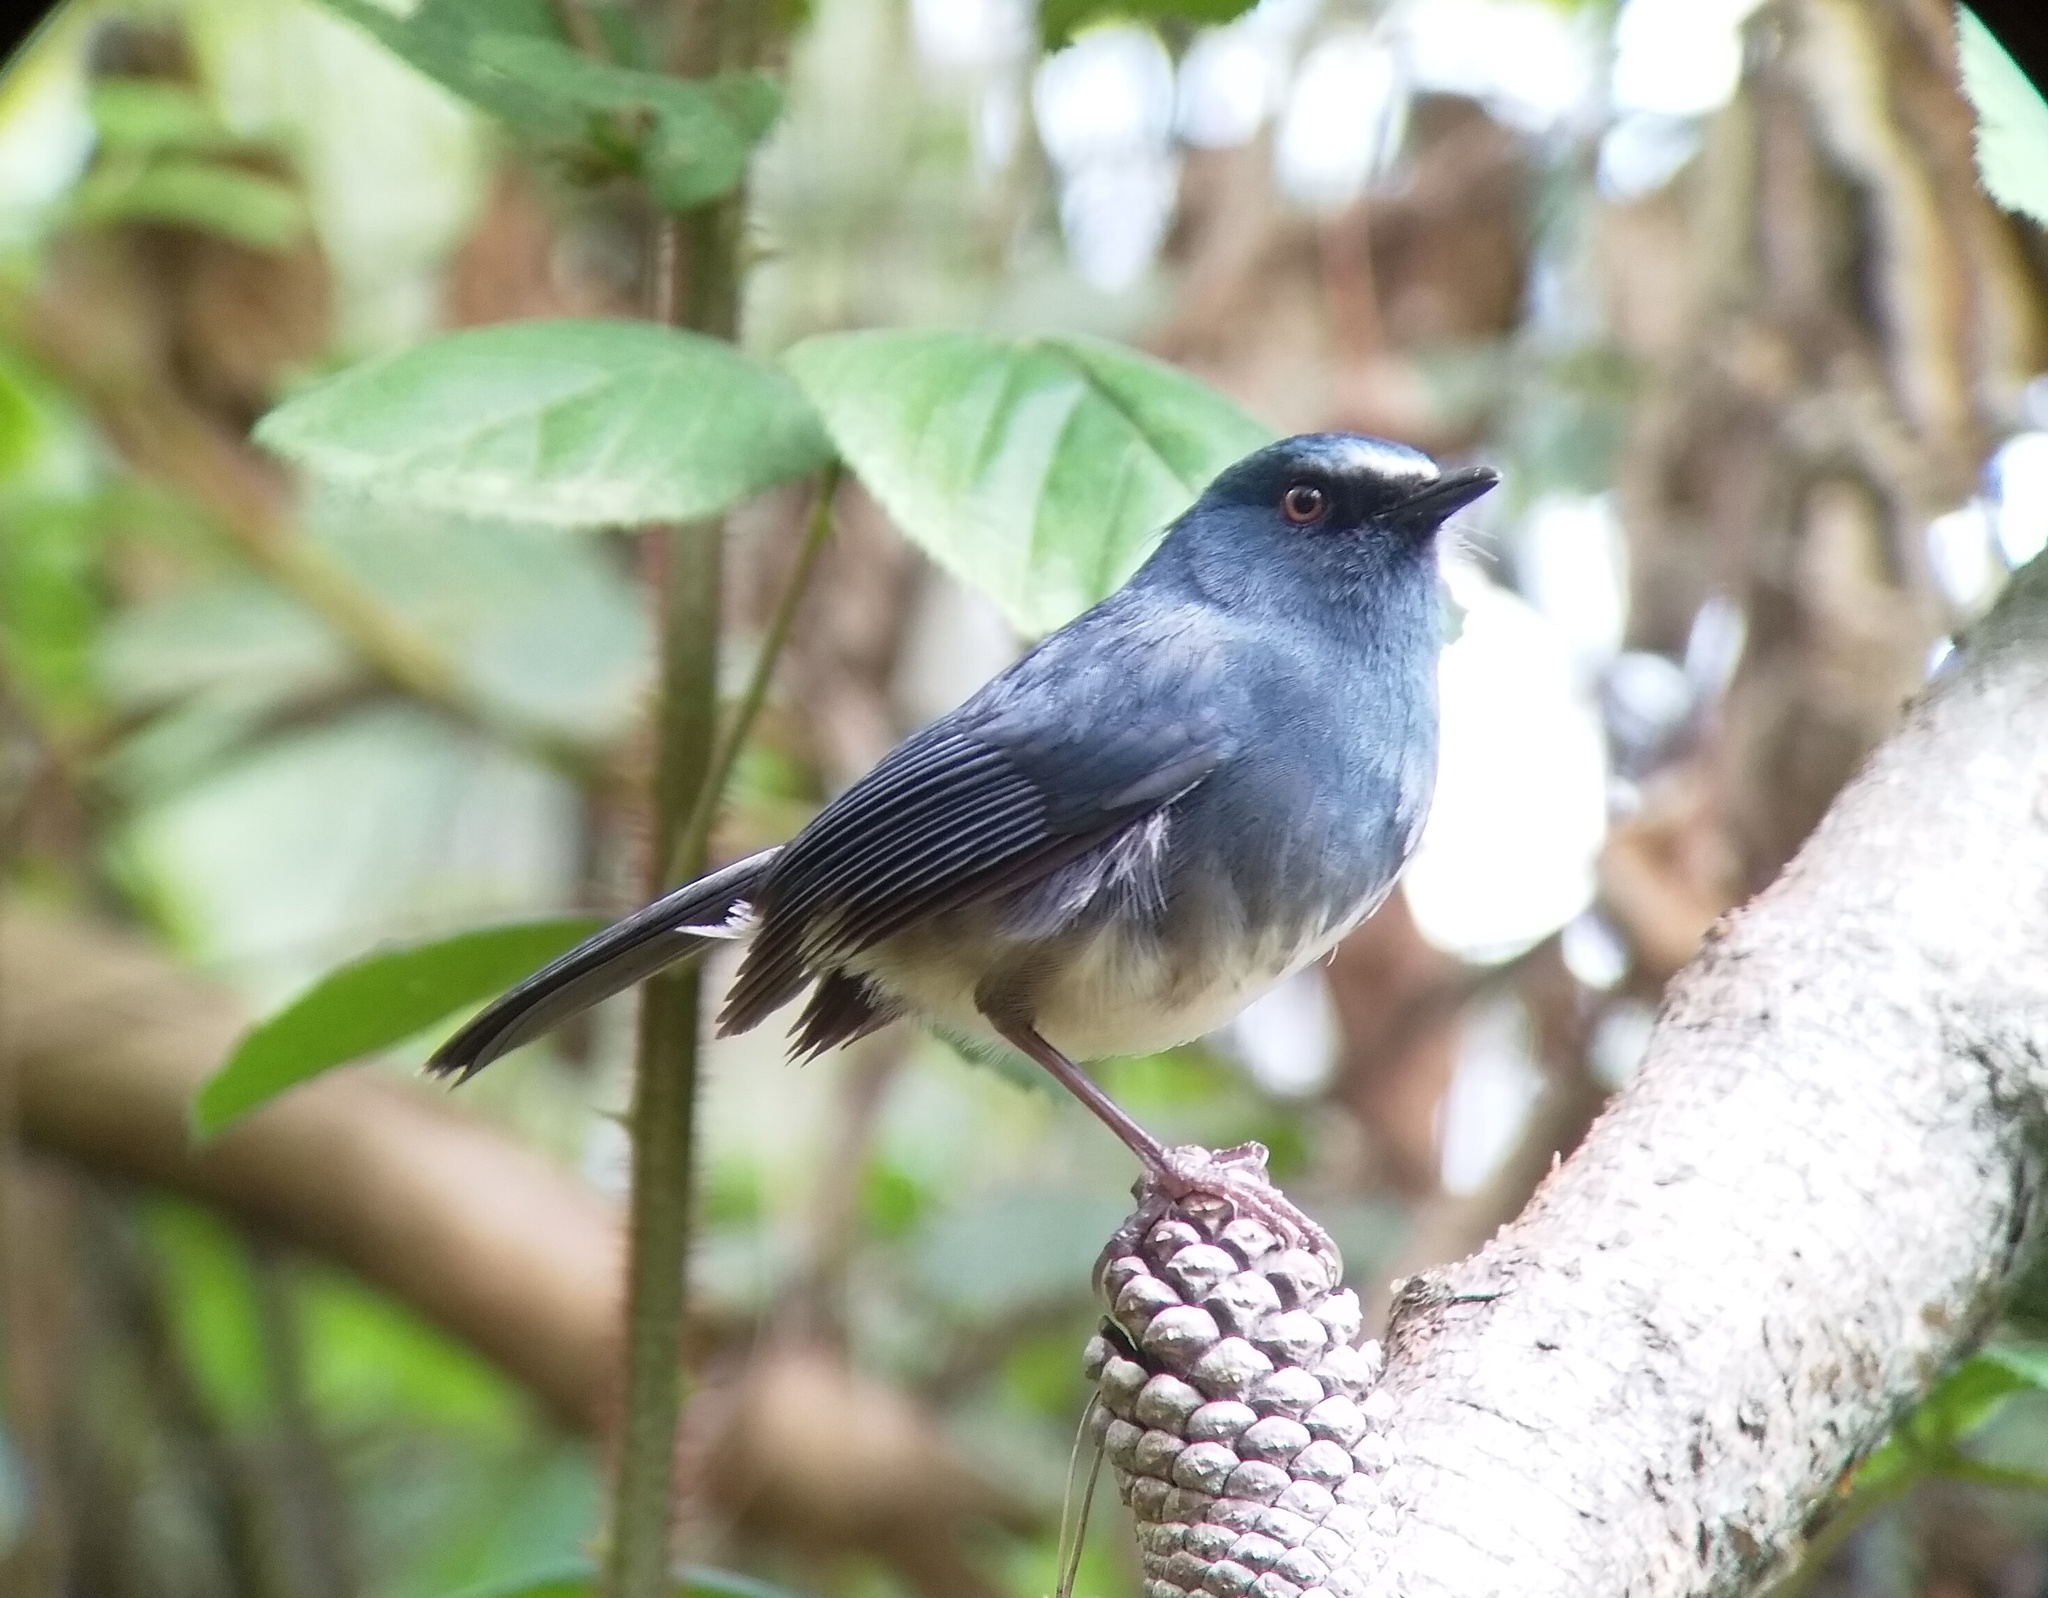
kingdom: Animalia
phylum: Chordata
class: Aves
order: Passeriformes
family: Muscicapidae
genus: Myiomela
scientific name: Myiomela albiventris
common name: White-bellied blue-robin
